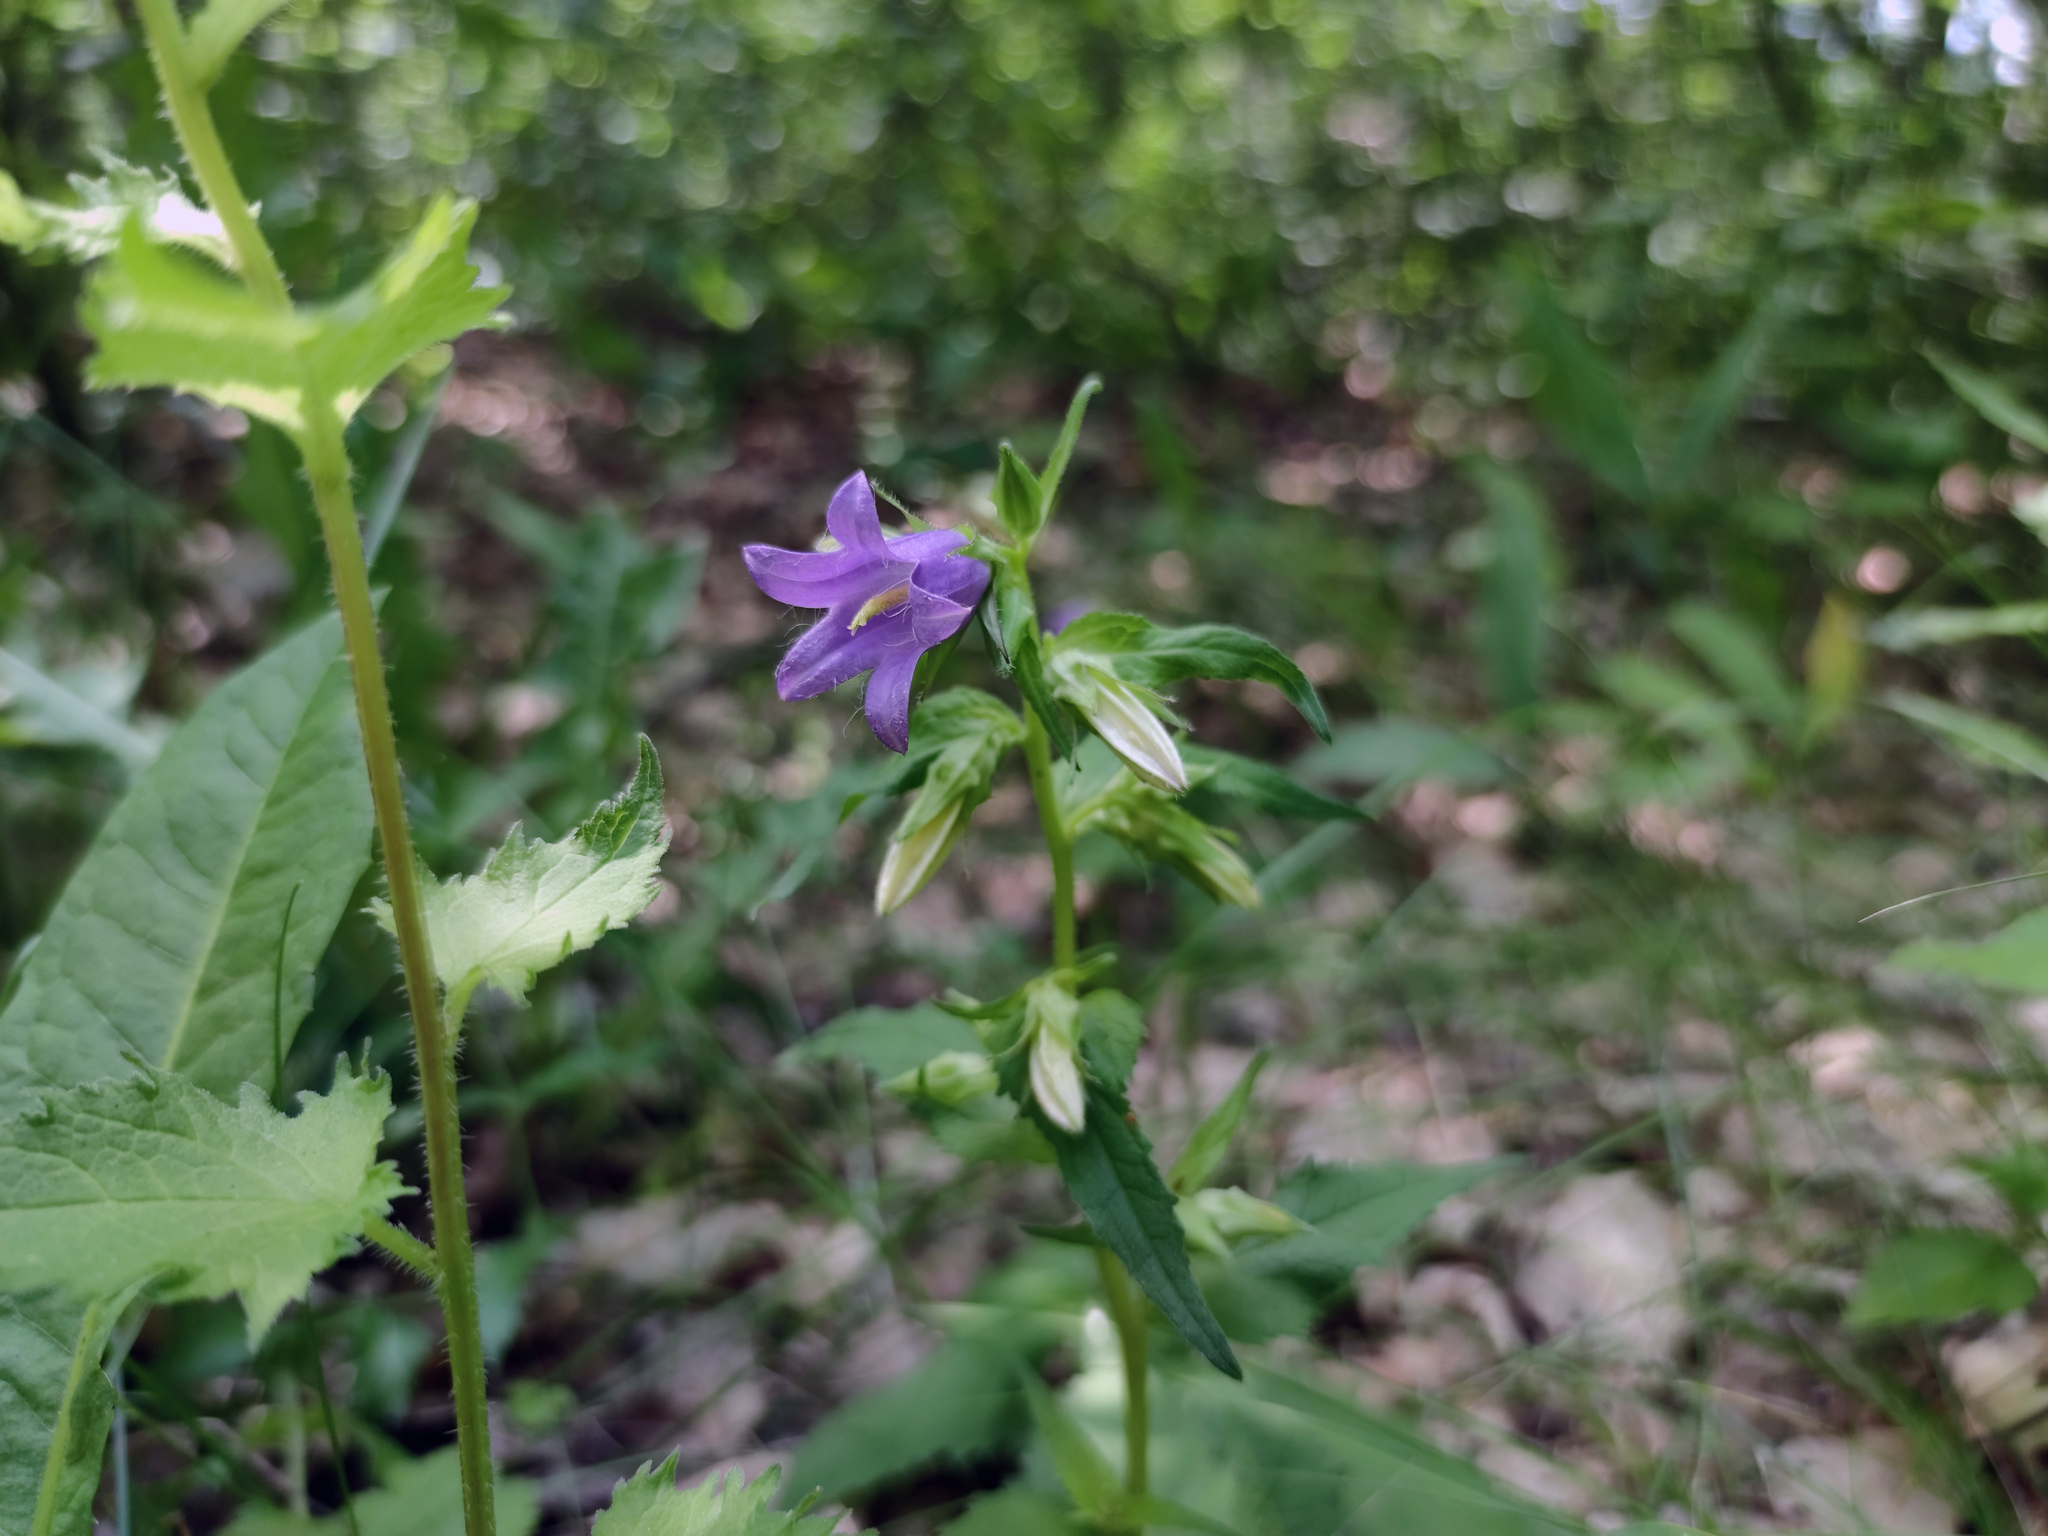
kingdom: Plantae
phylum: Tracheophyta
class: Magnoliopsida
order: Asterales
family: Campanulaceae
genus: Campanula
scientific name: Campanula trachelium
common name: Nettle-leaved bellflower
